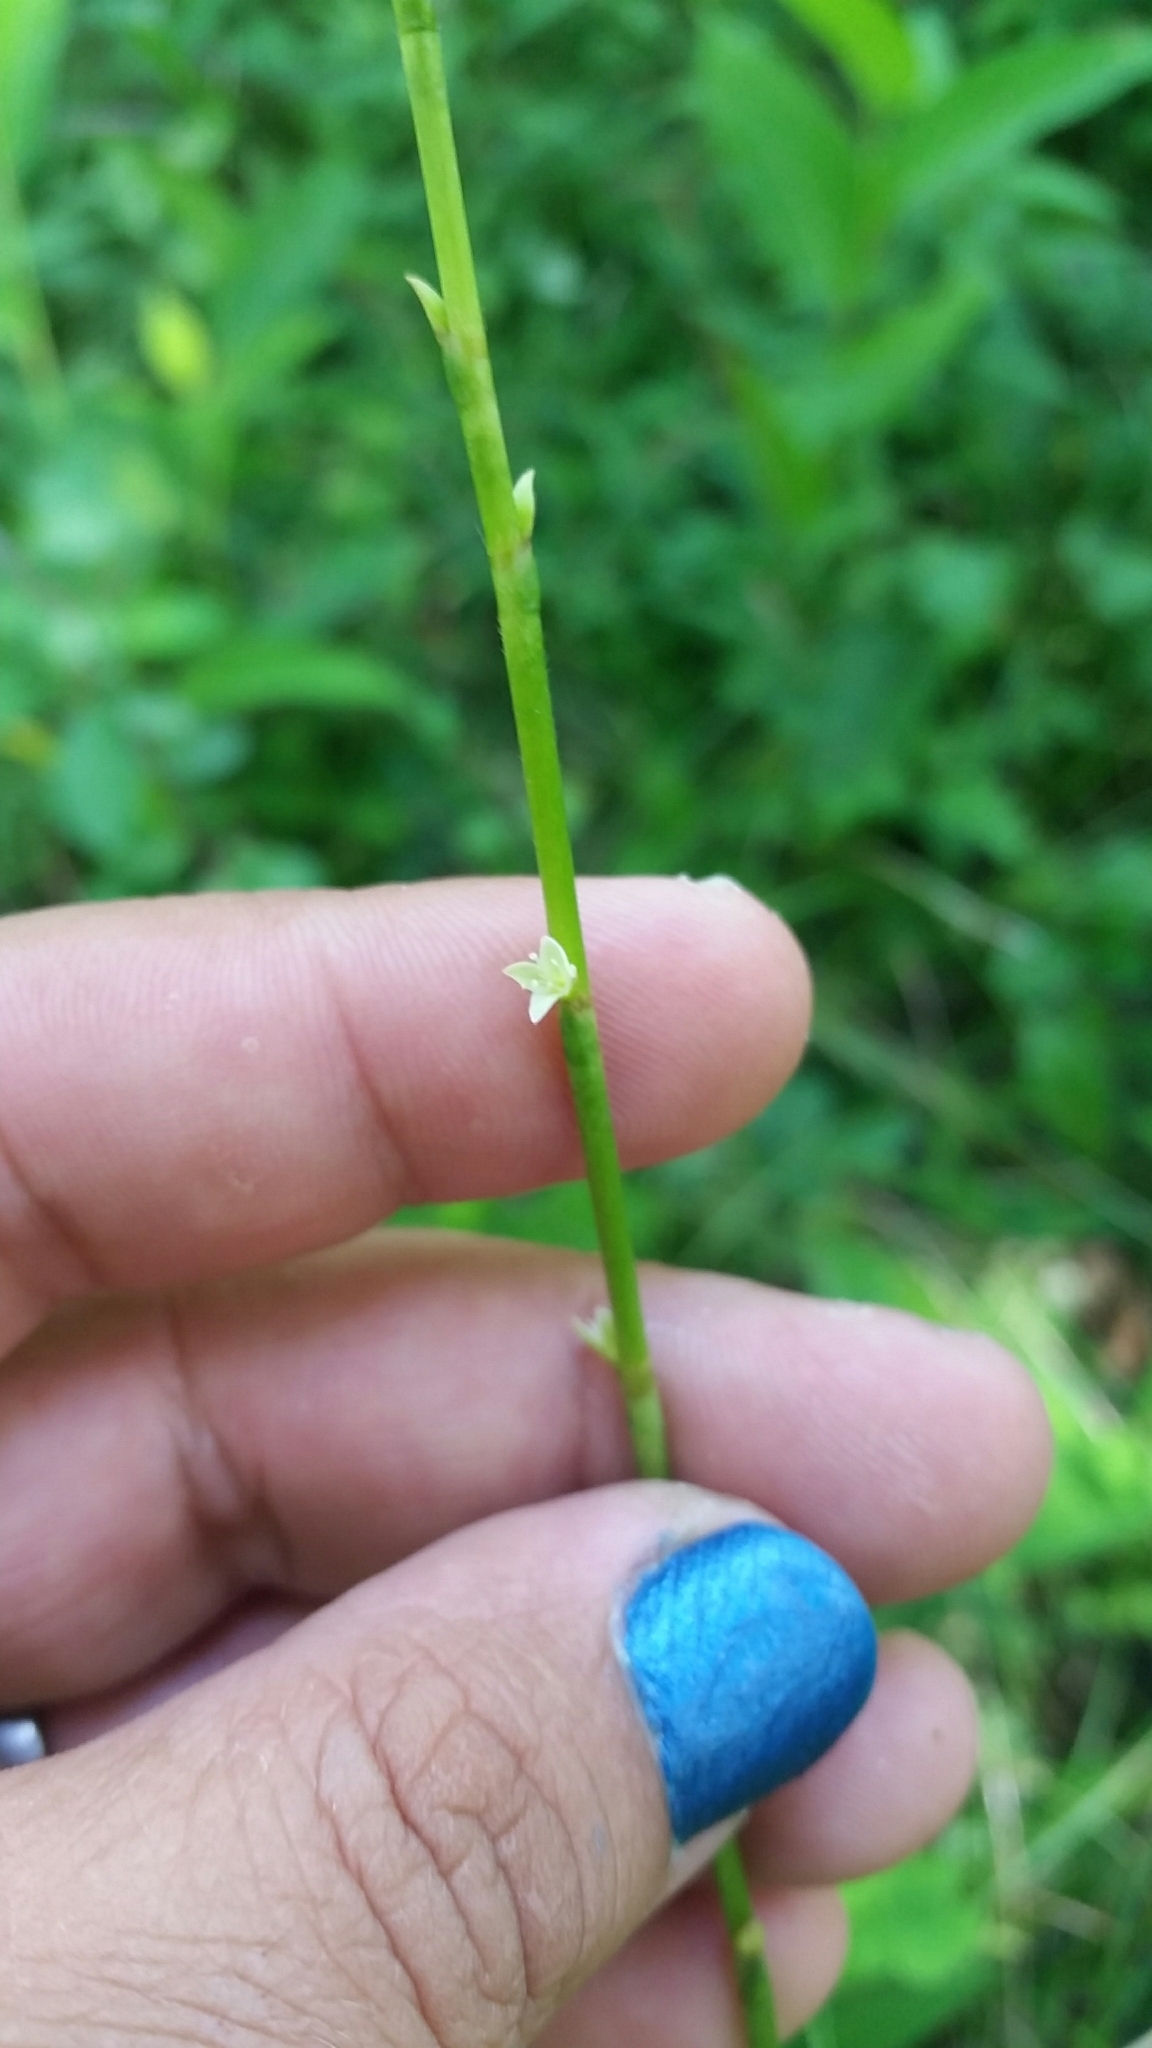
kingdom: Plantae
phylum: Tracheophyta
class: Magnoliopsida
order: Caryophyllales
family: Polygonaceae
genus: Persicaria
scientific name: Persicaria virginiana
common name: Jumpseed
